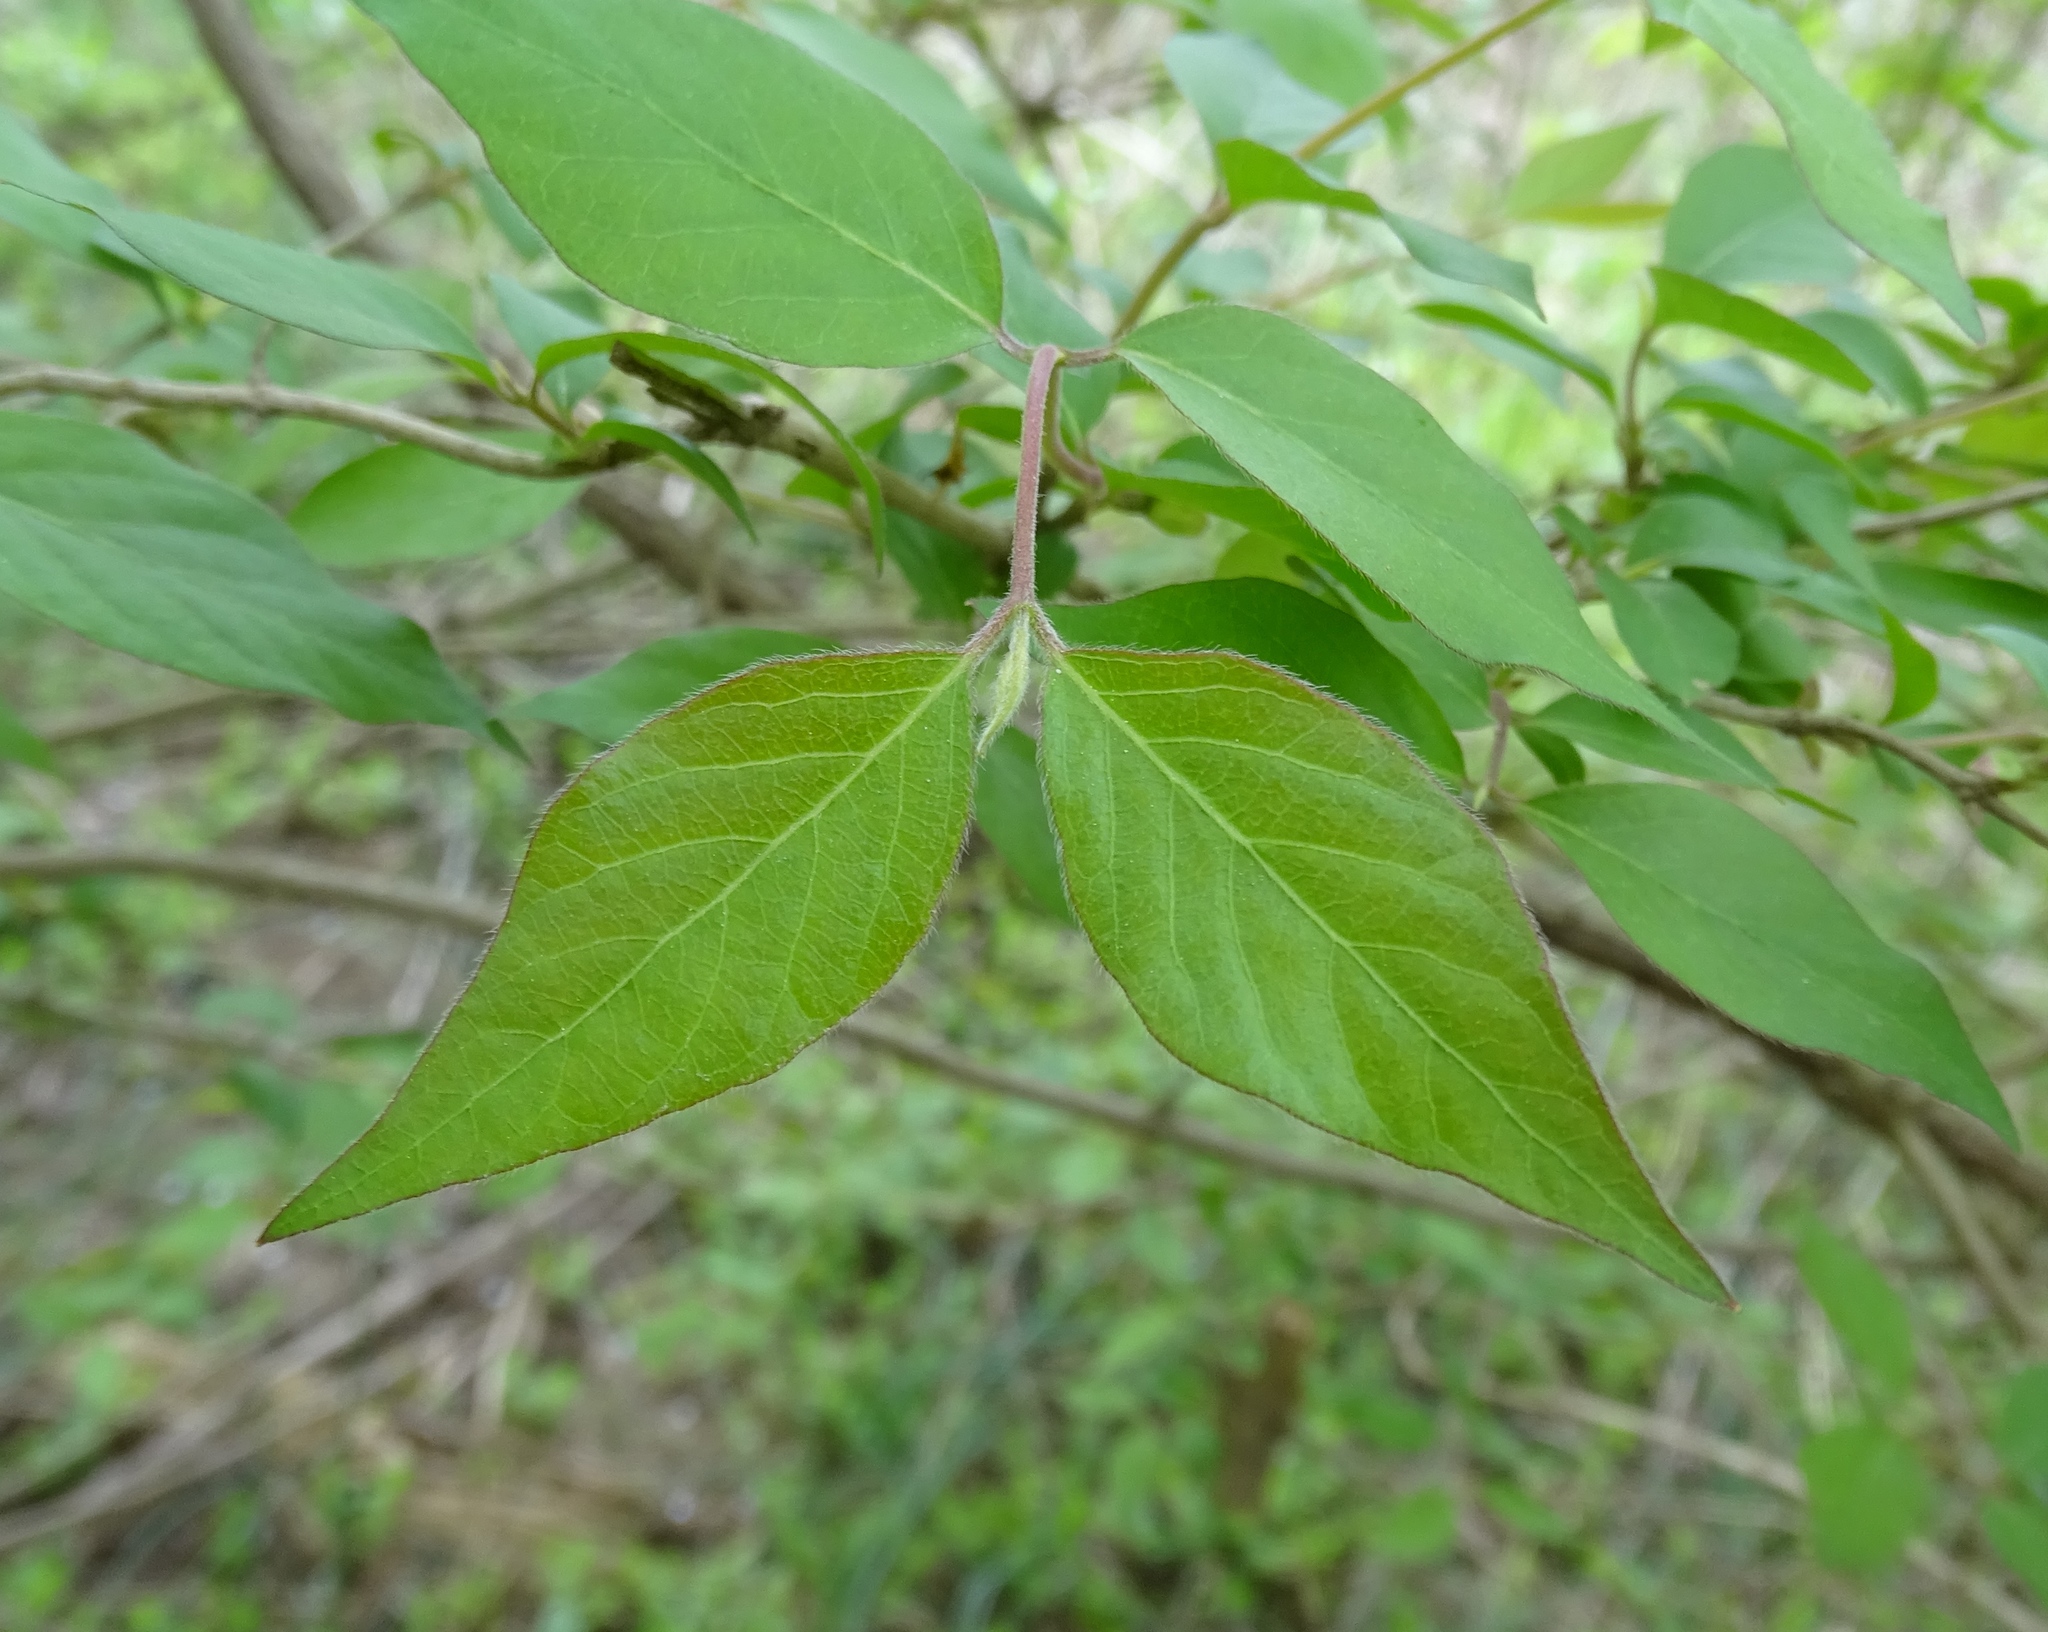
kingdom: Plantae
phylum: Tracheophyta
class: Magnoliopsida
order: Dipsacales
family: Caprifoliaceae
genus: Lonicera
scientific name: Lonicera maackii
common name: Amur honeysuckle
